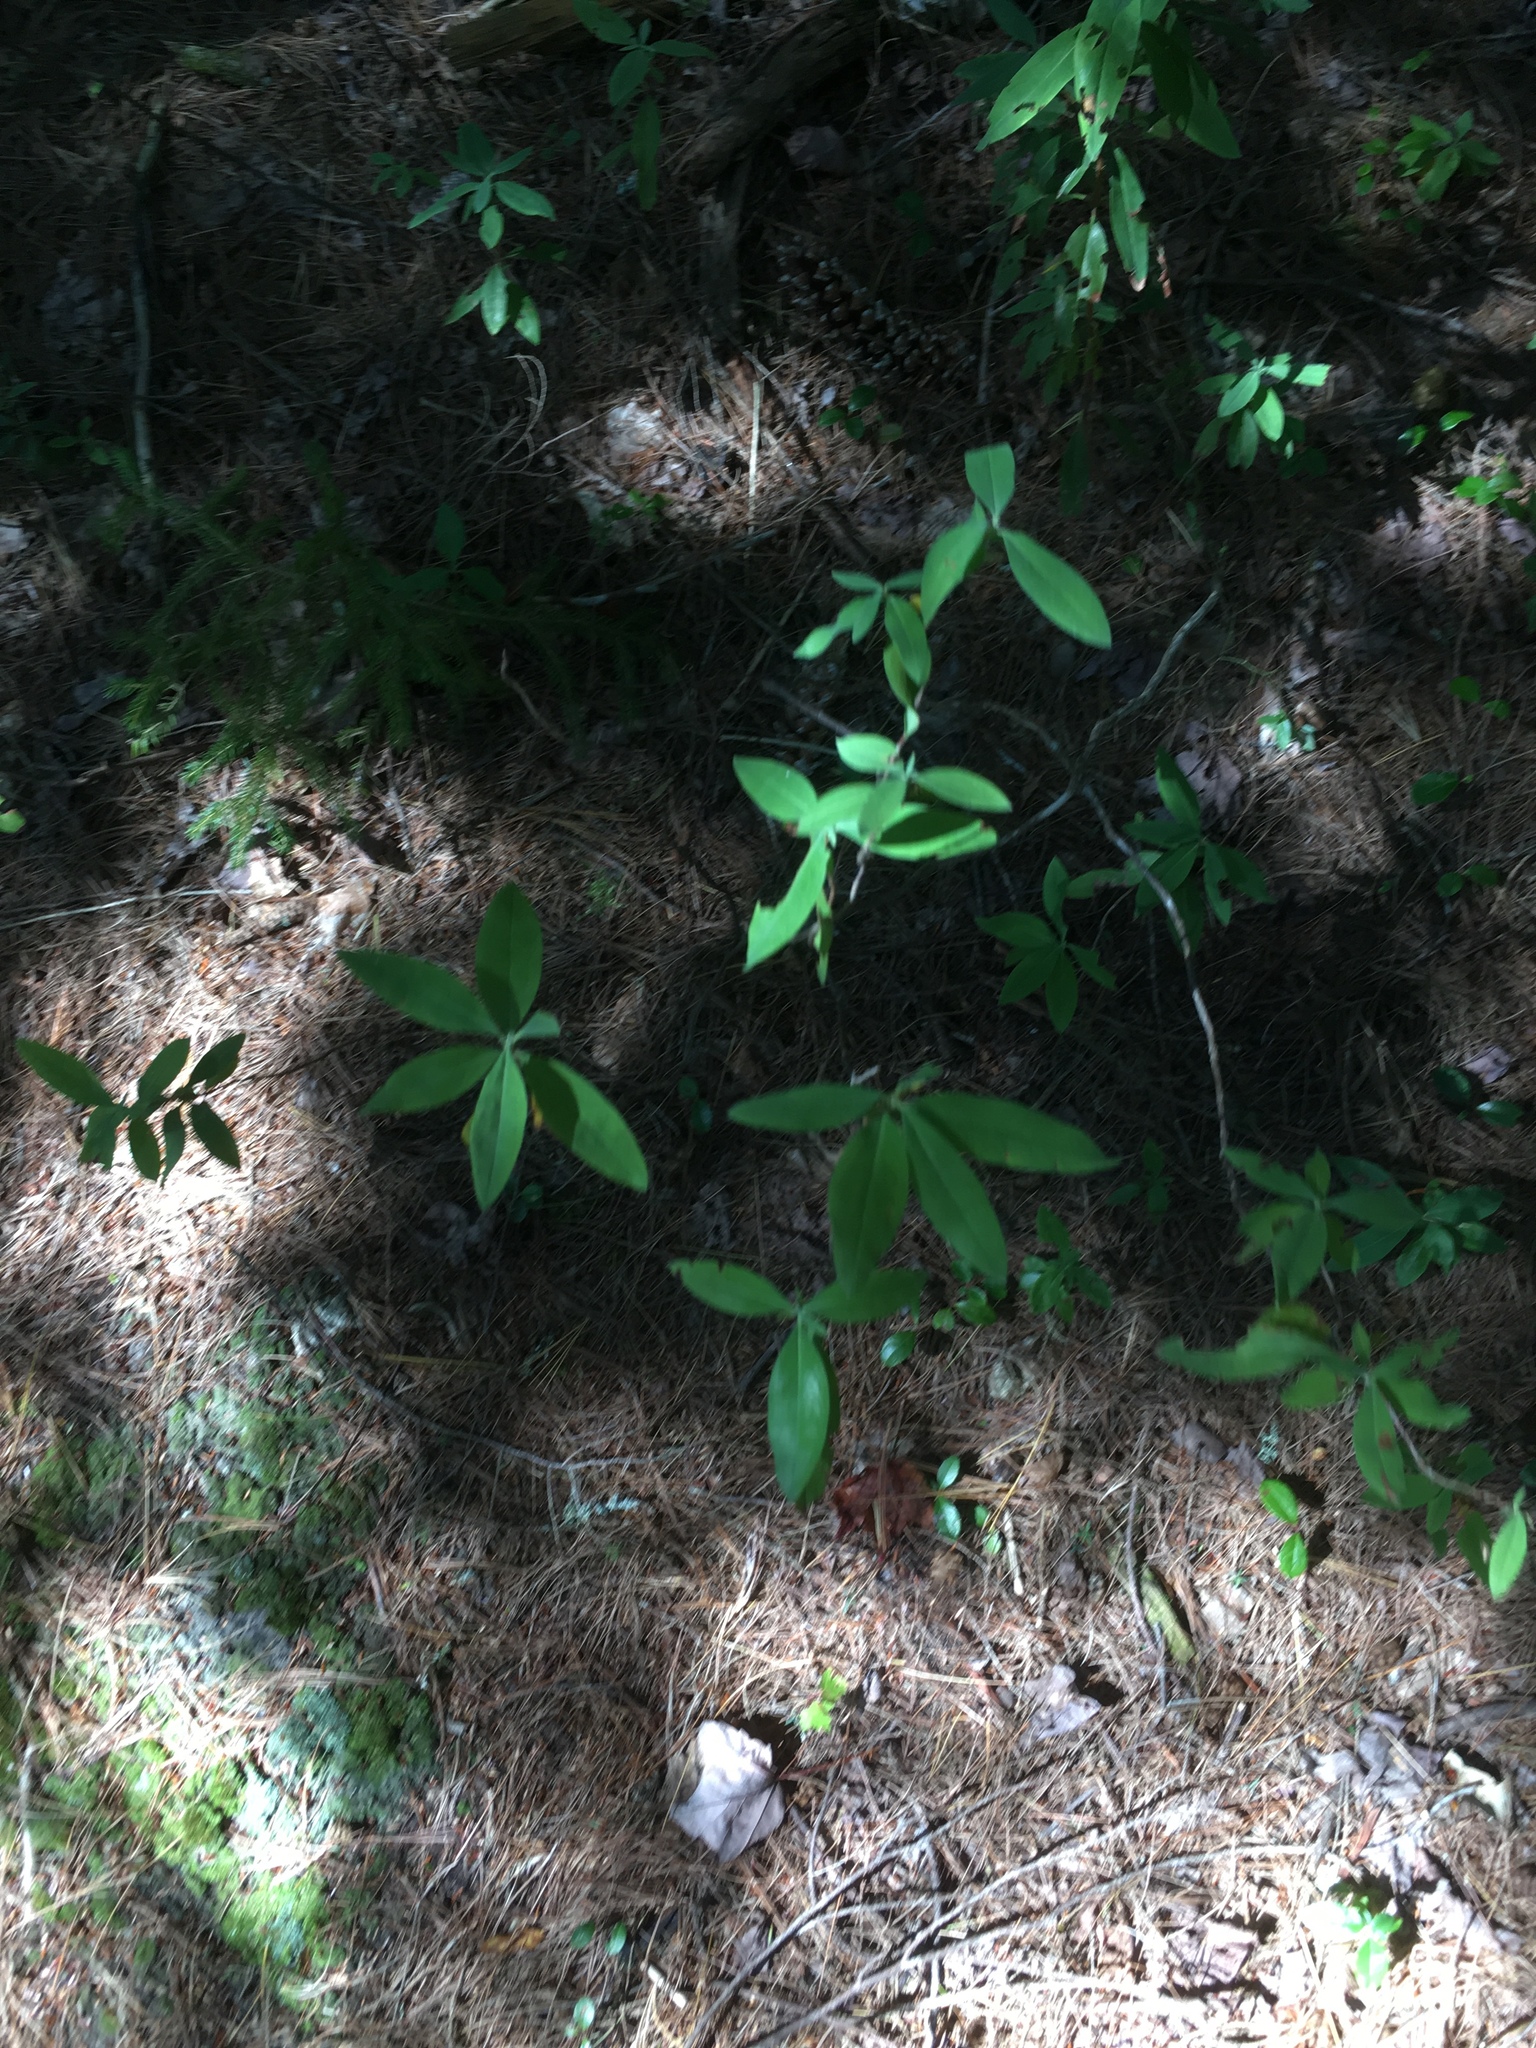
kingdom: Plantae
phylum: Tracheophyta
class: Magnoliopsida
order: Ericales
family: Ericaceae
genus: Kalmia
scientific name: Kalmia angustifolia
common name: Sheep-laurel
